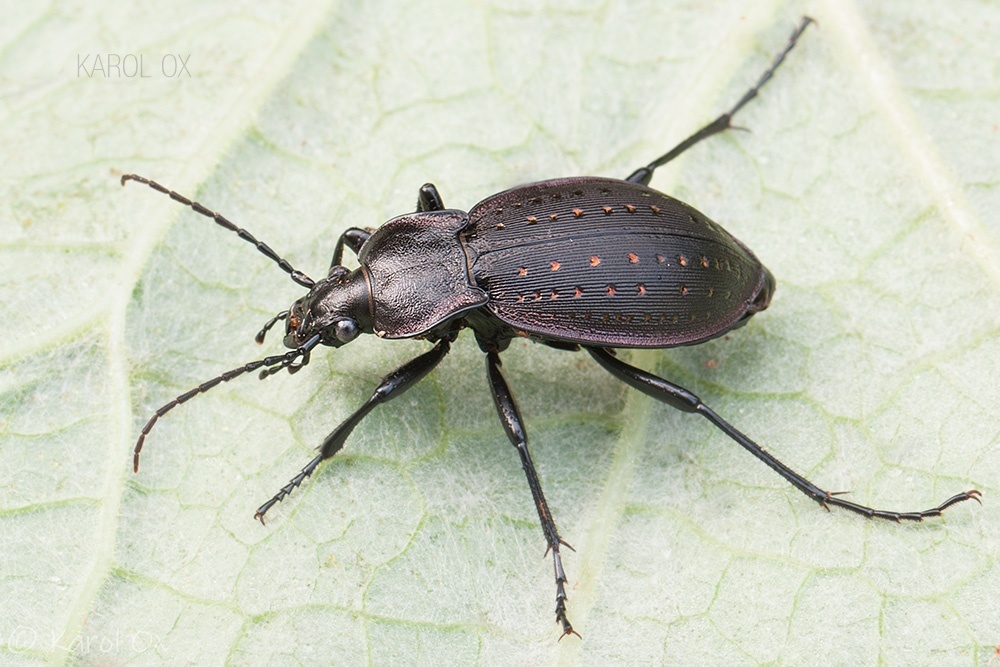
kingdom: Animalia
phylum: Arthropoda
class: Insecta
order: Coleoptera
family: Carabidae
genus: Carabus
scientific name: Carabus hortensis
